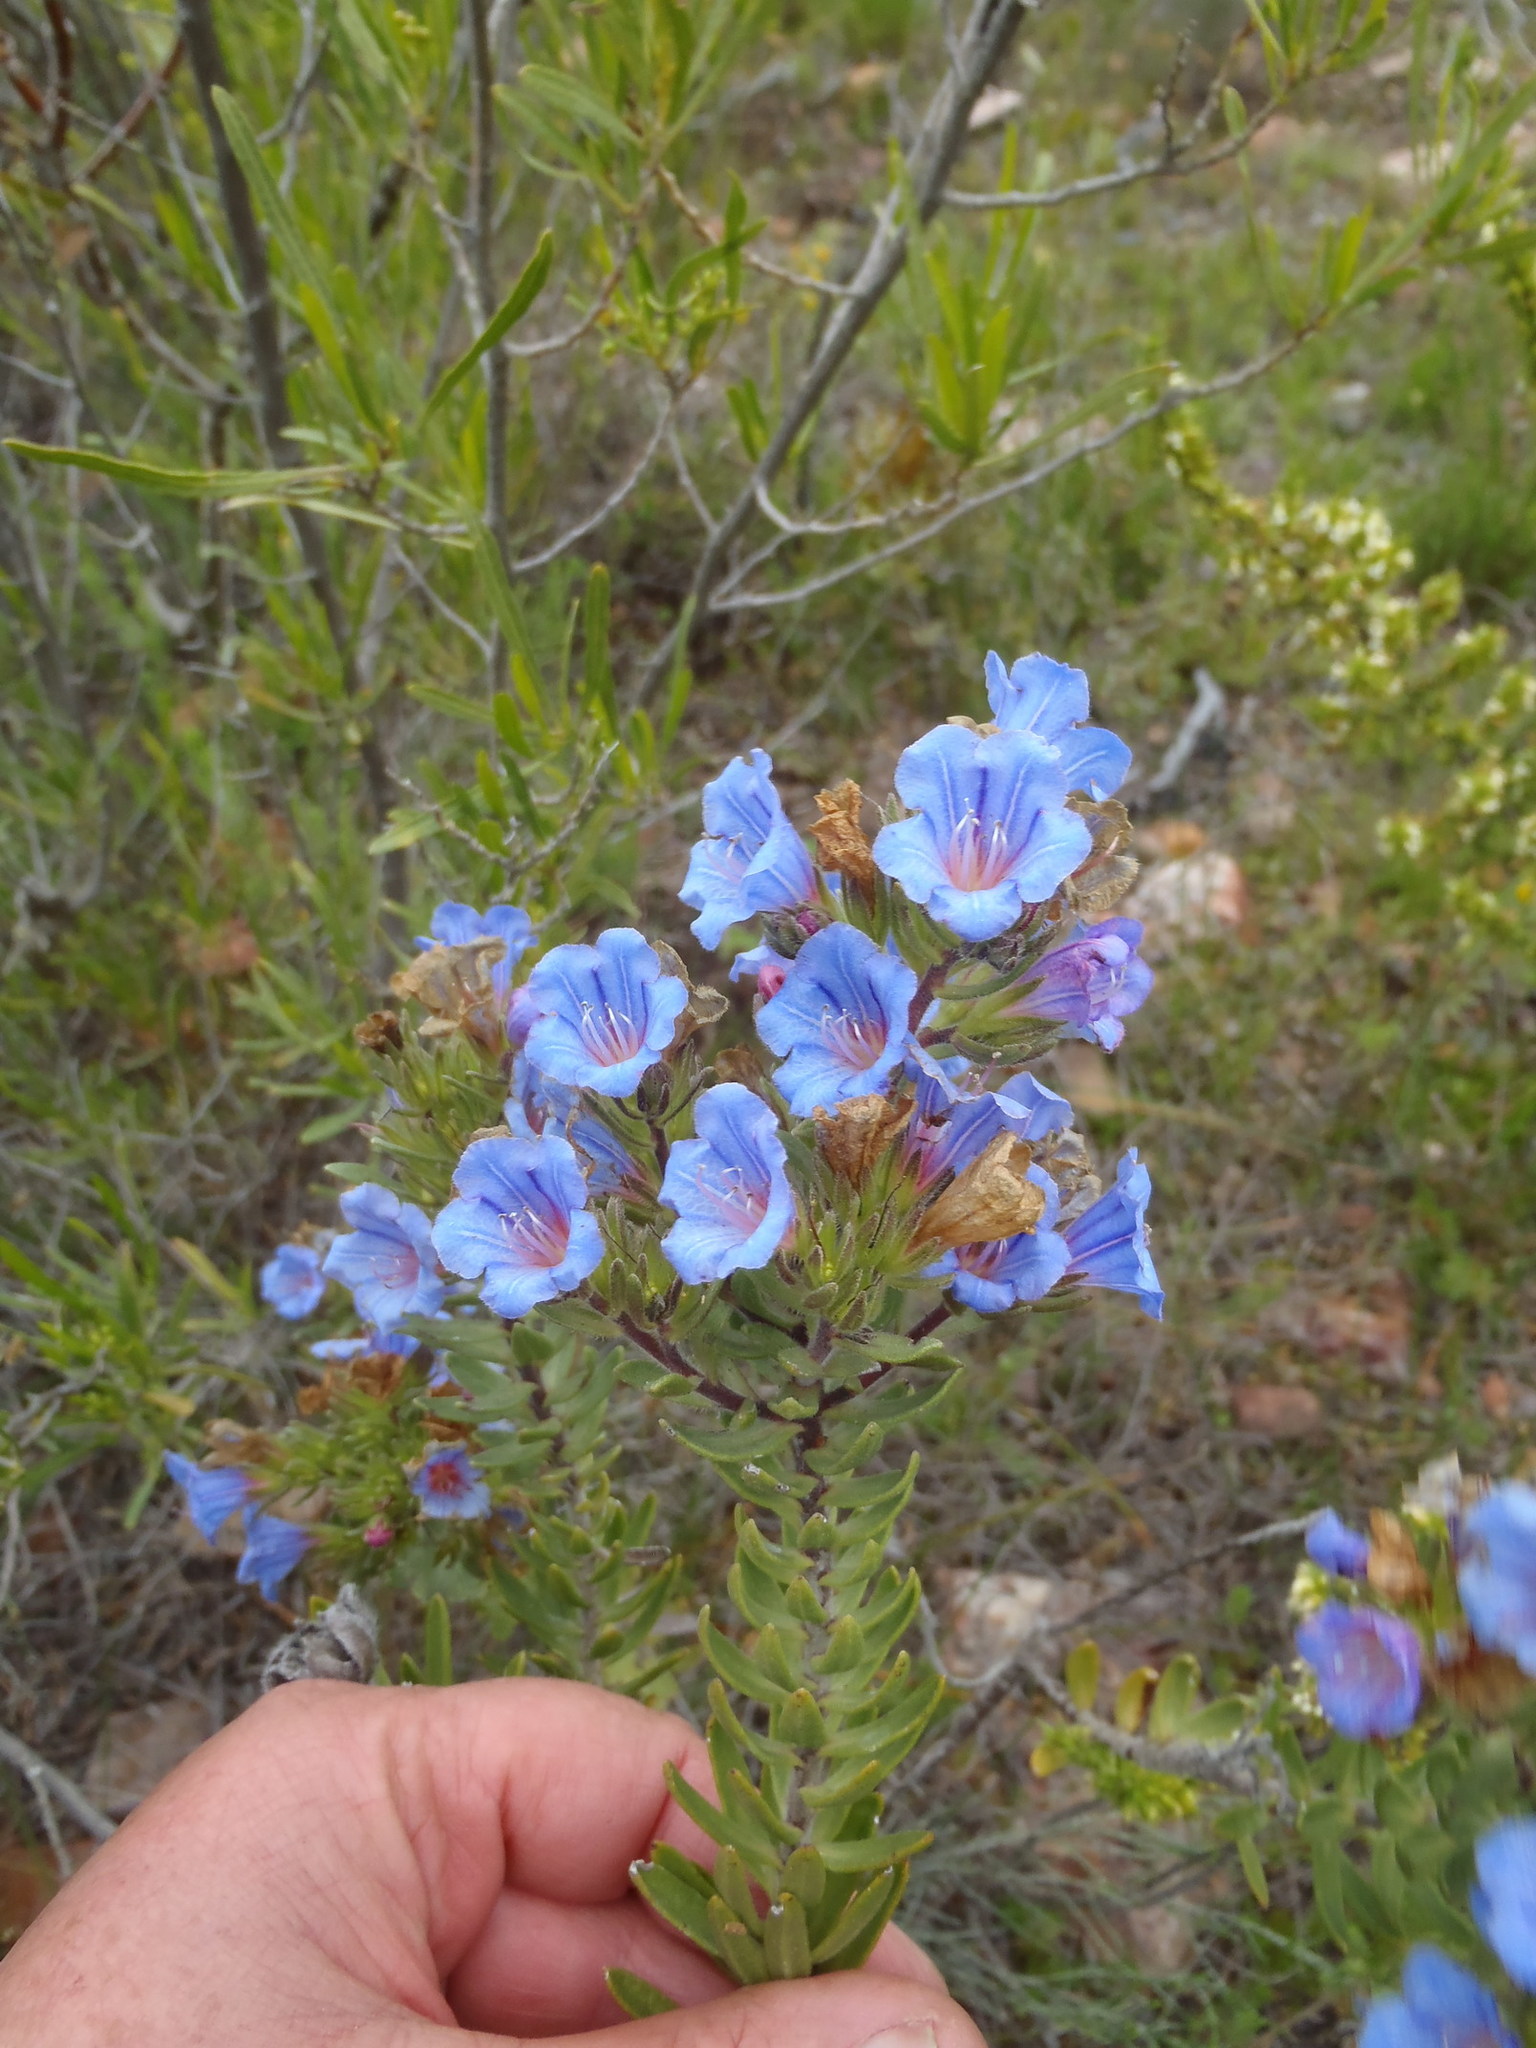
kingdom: Plantae
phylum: Tracheophyta
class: Magnoliopsida
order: Boraginales
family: Boraginaceae
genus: Lobostemon
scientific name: Lobostemon marlothii
